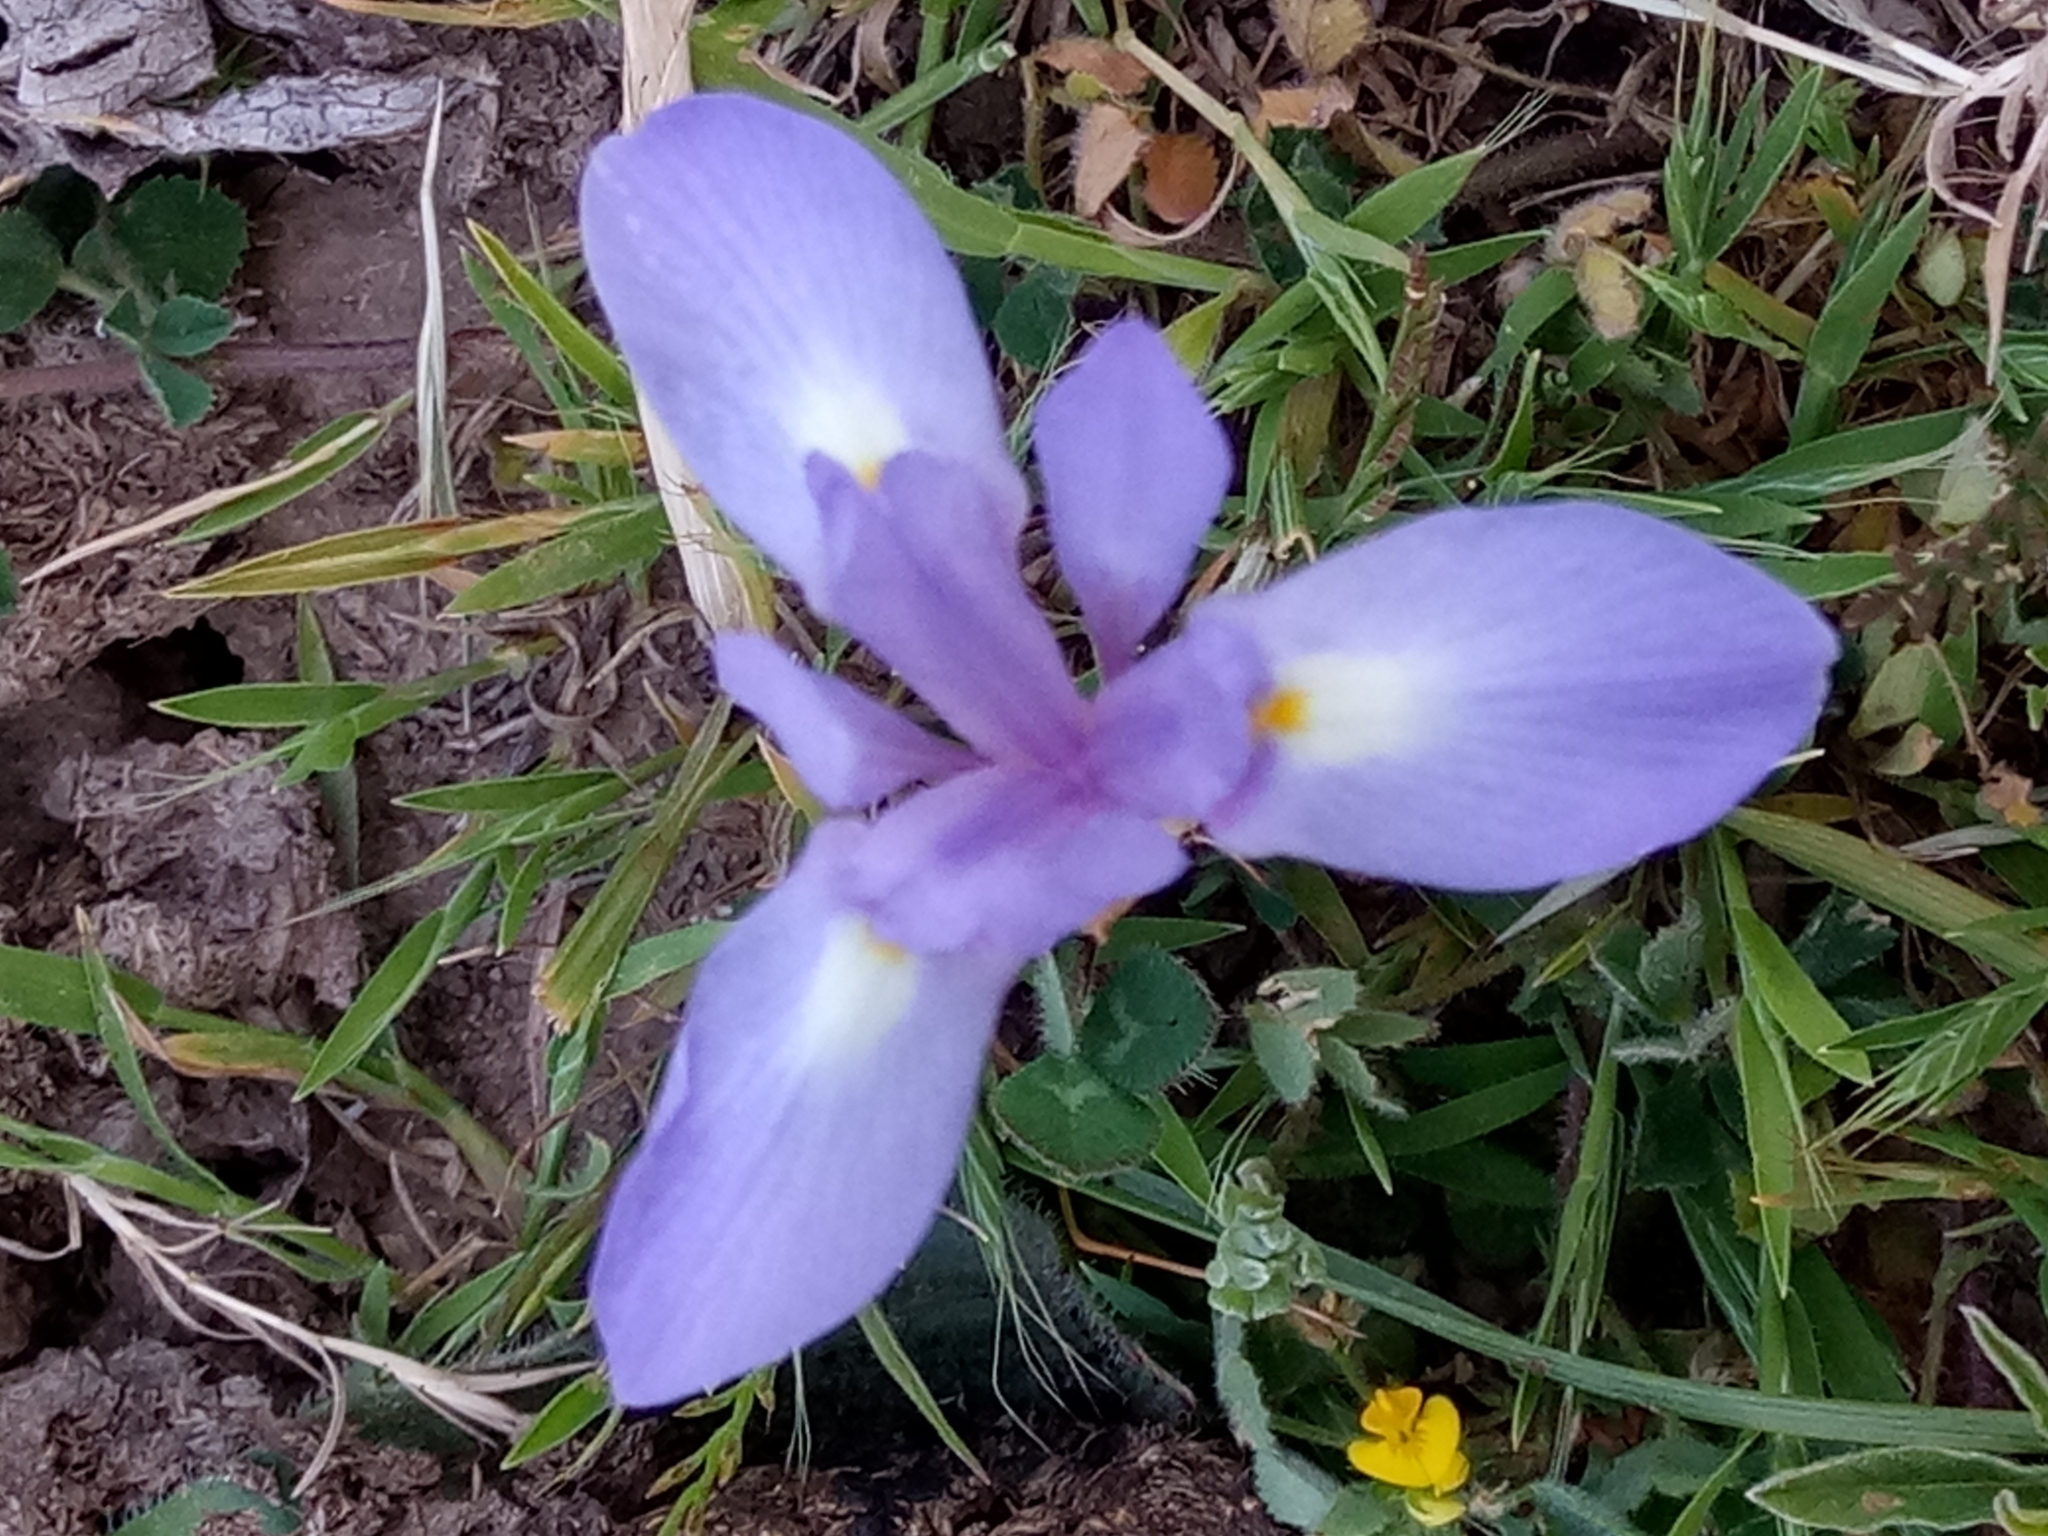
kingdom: Plantae
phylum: Tracheophyta
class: Liliopsida
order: Asparagales
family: Iridaceae
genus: Moraea
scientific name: Moraea sisyrinchium
